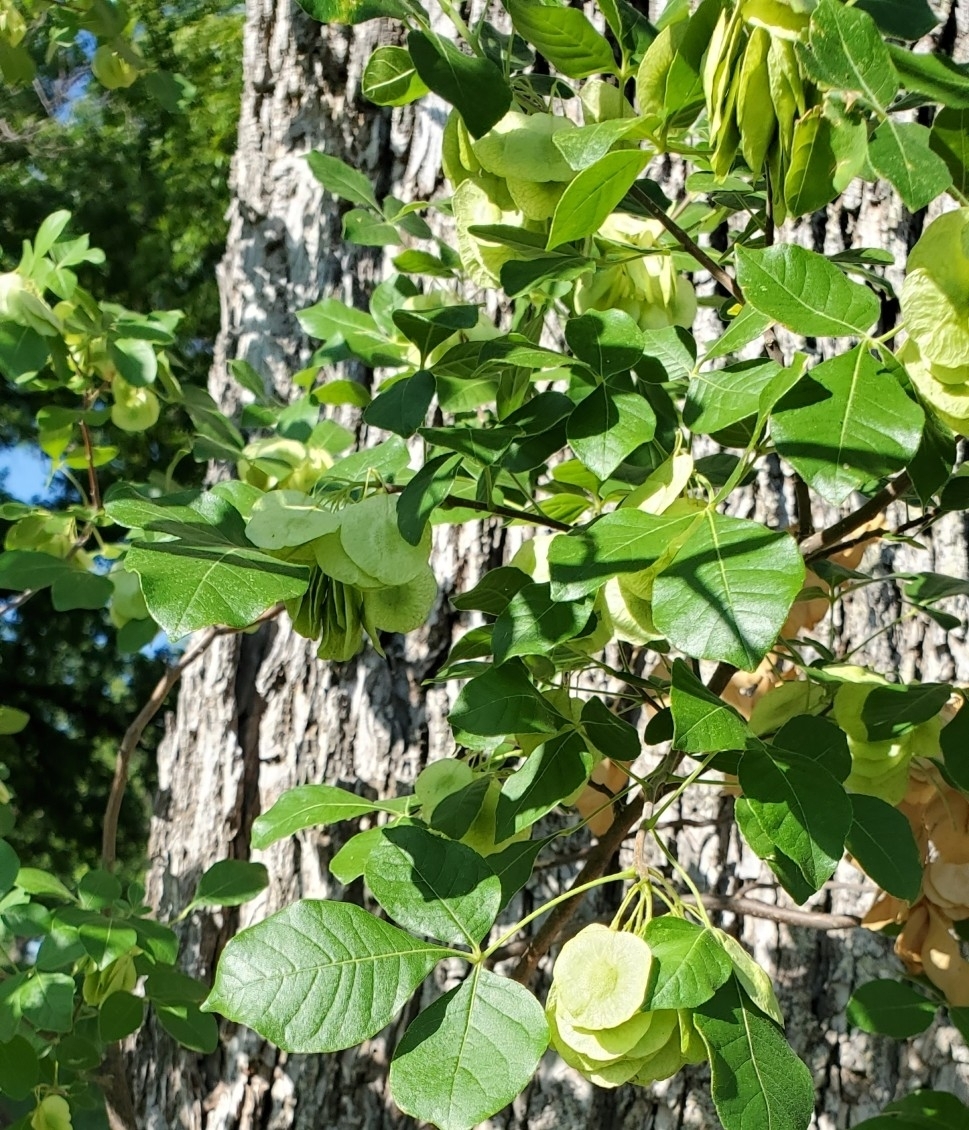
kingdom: Plantae
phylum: Tracheophyta
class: Magnoliopsida
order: Sapindales
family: Rutaceae
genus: Ptelea
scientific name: Ptelea trifoliata
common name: Common hop-tree
